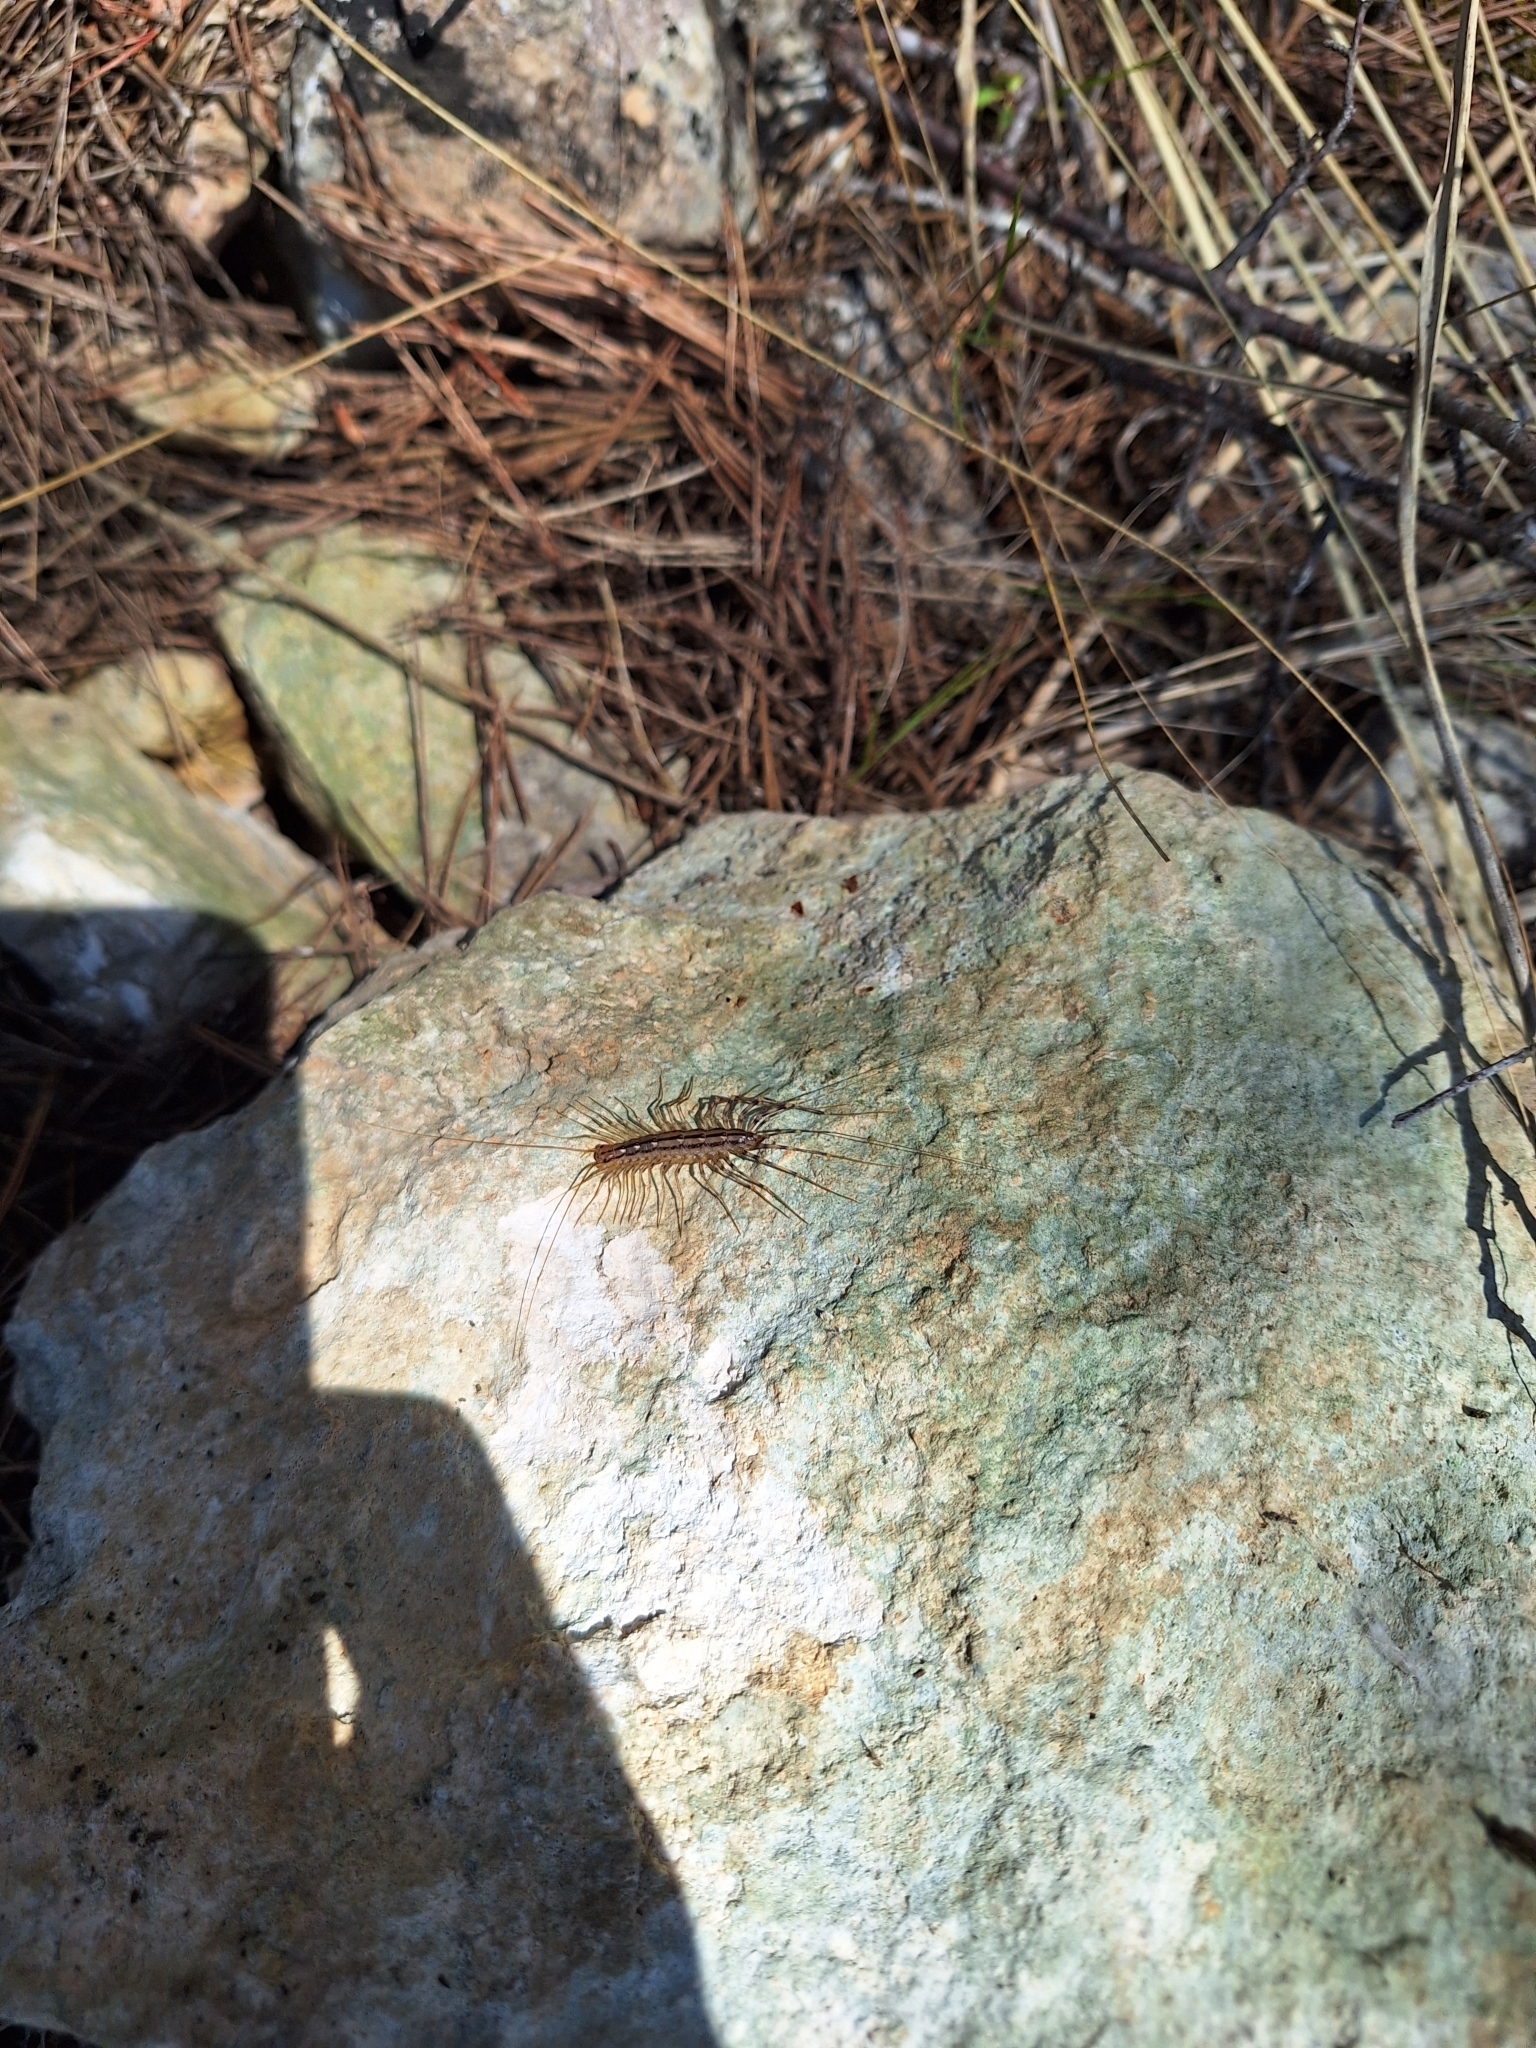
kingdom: Animalia
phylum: Arthropoda
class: Chilopoda
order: Scutigeromorpha
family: Scutigeridae
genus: Scutigera
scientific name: Scutigera coleoptrata
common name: House centipede
